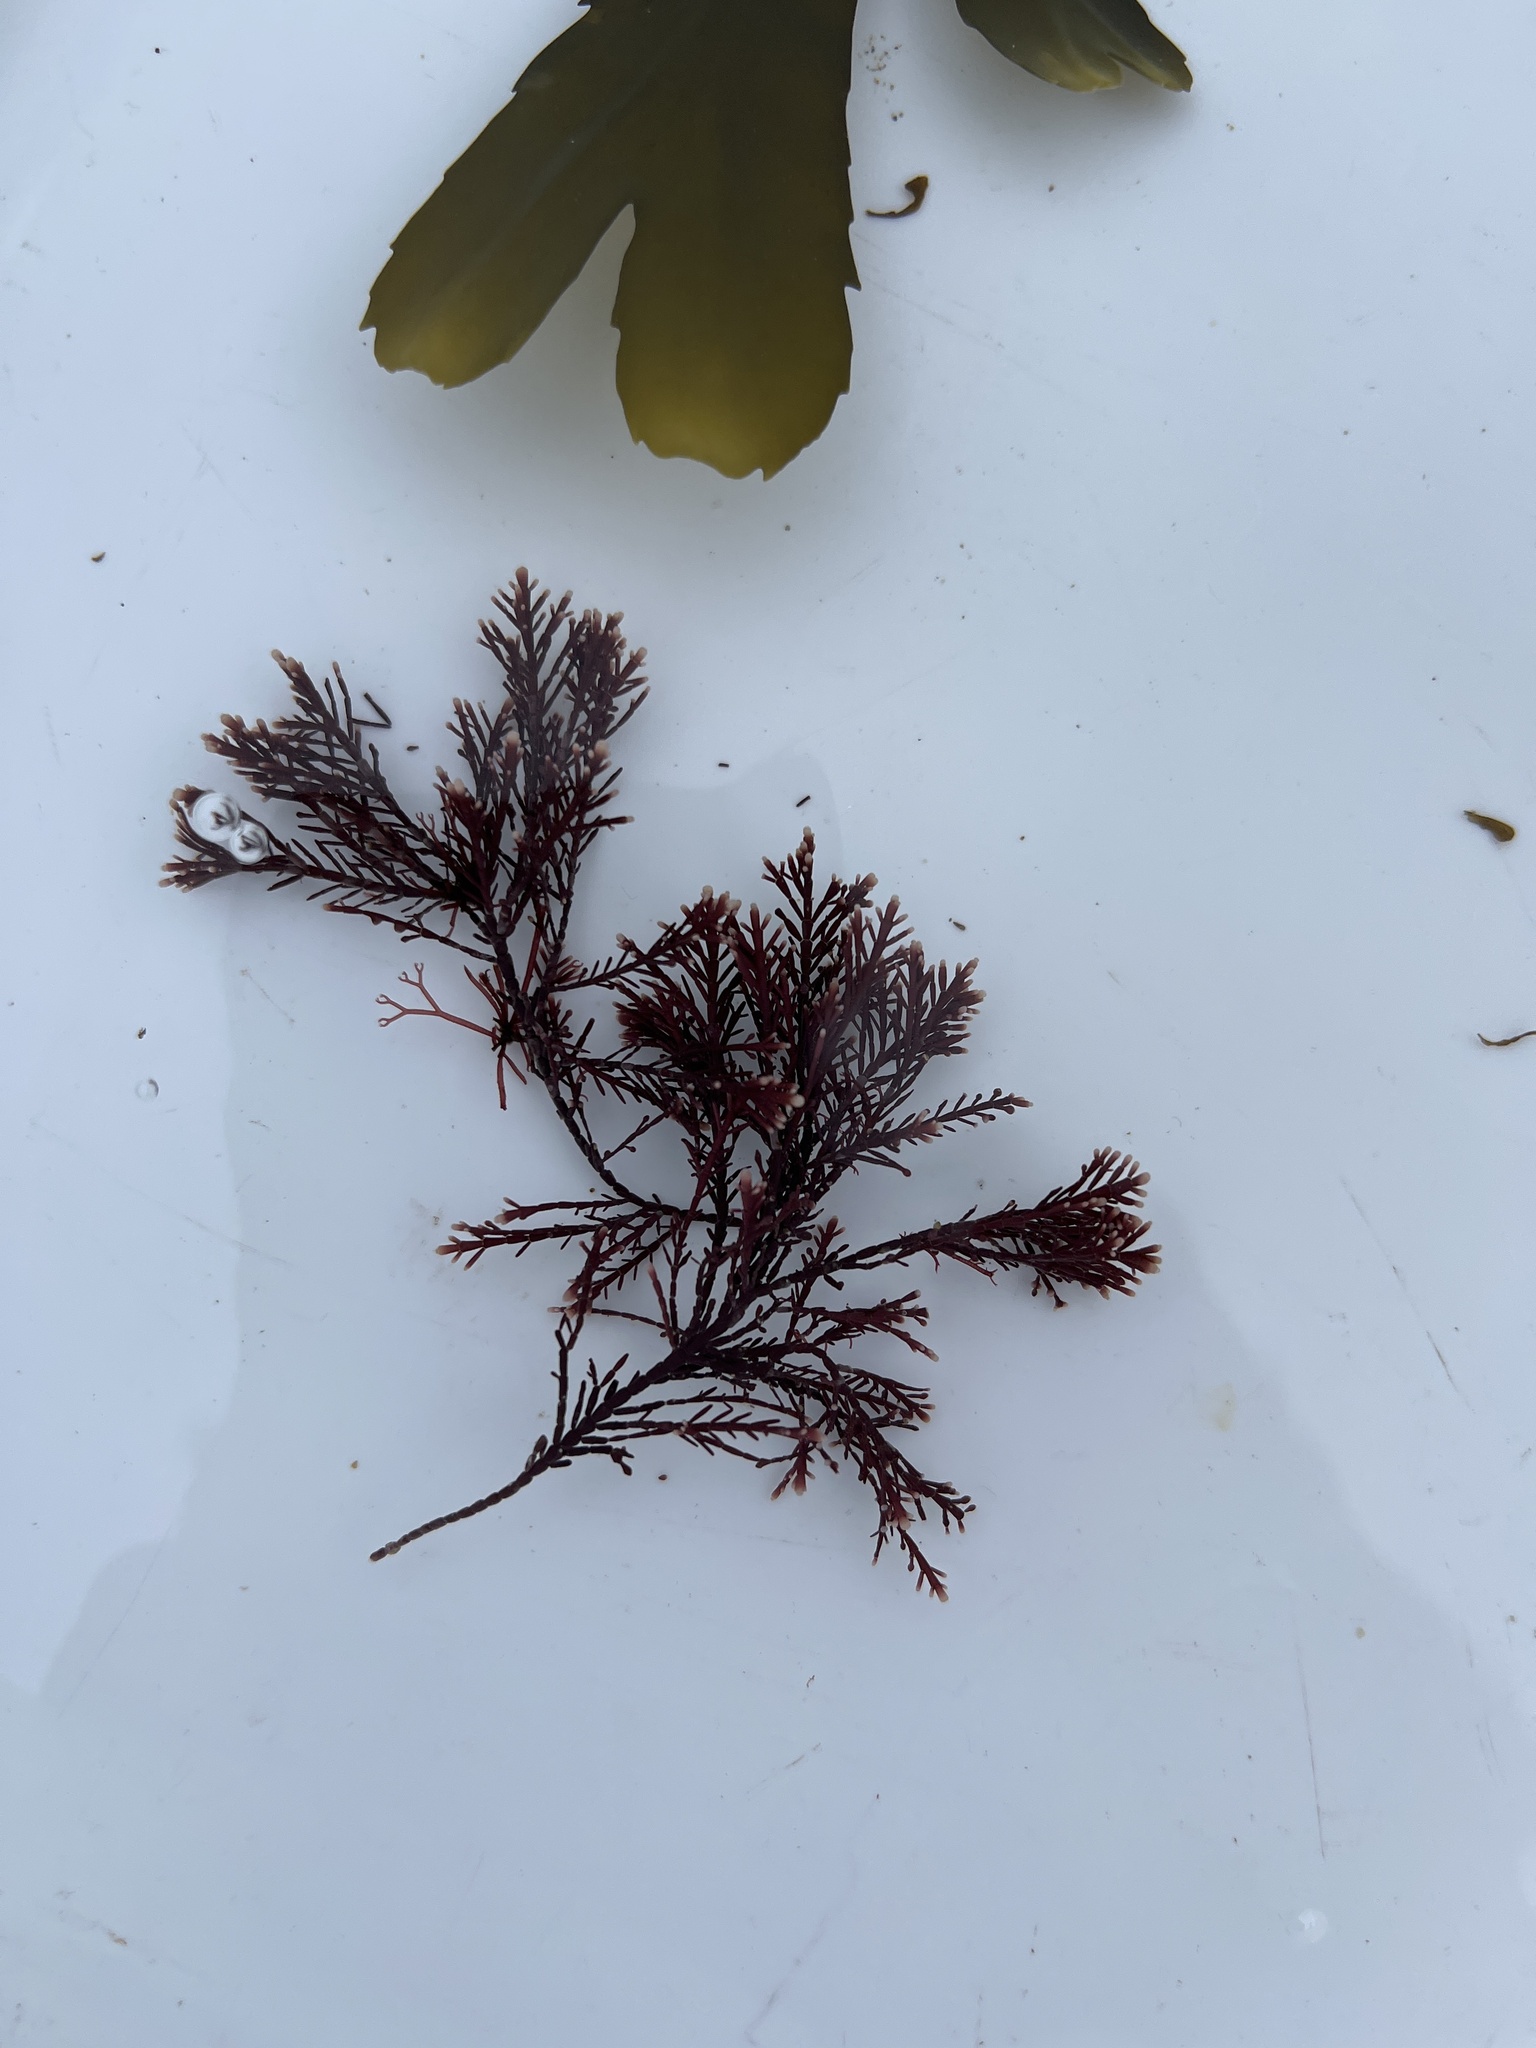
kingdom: Plantae
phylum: Rhodophyta
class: Florideophyceae
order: Corallinales
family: Corallinaceae
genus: Corallina
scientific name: Corallina officinalis
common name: Coral weed
